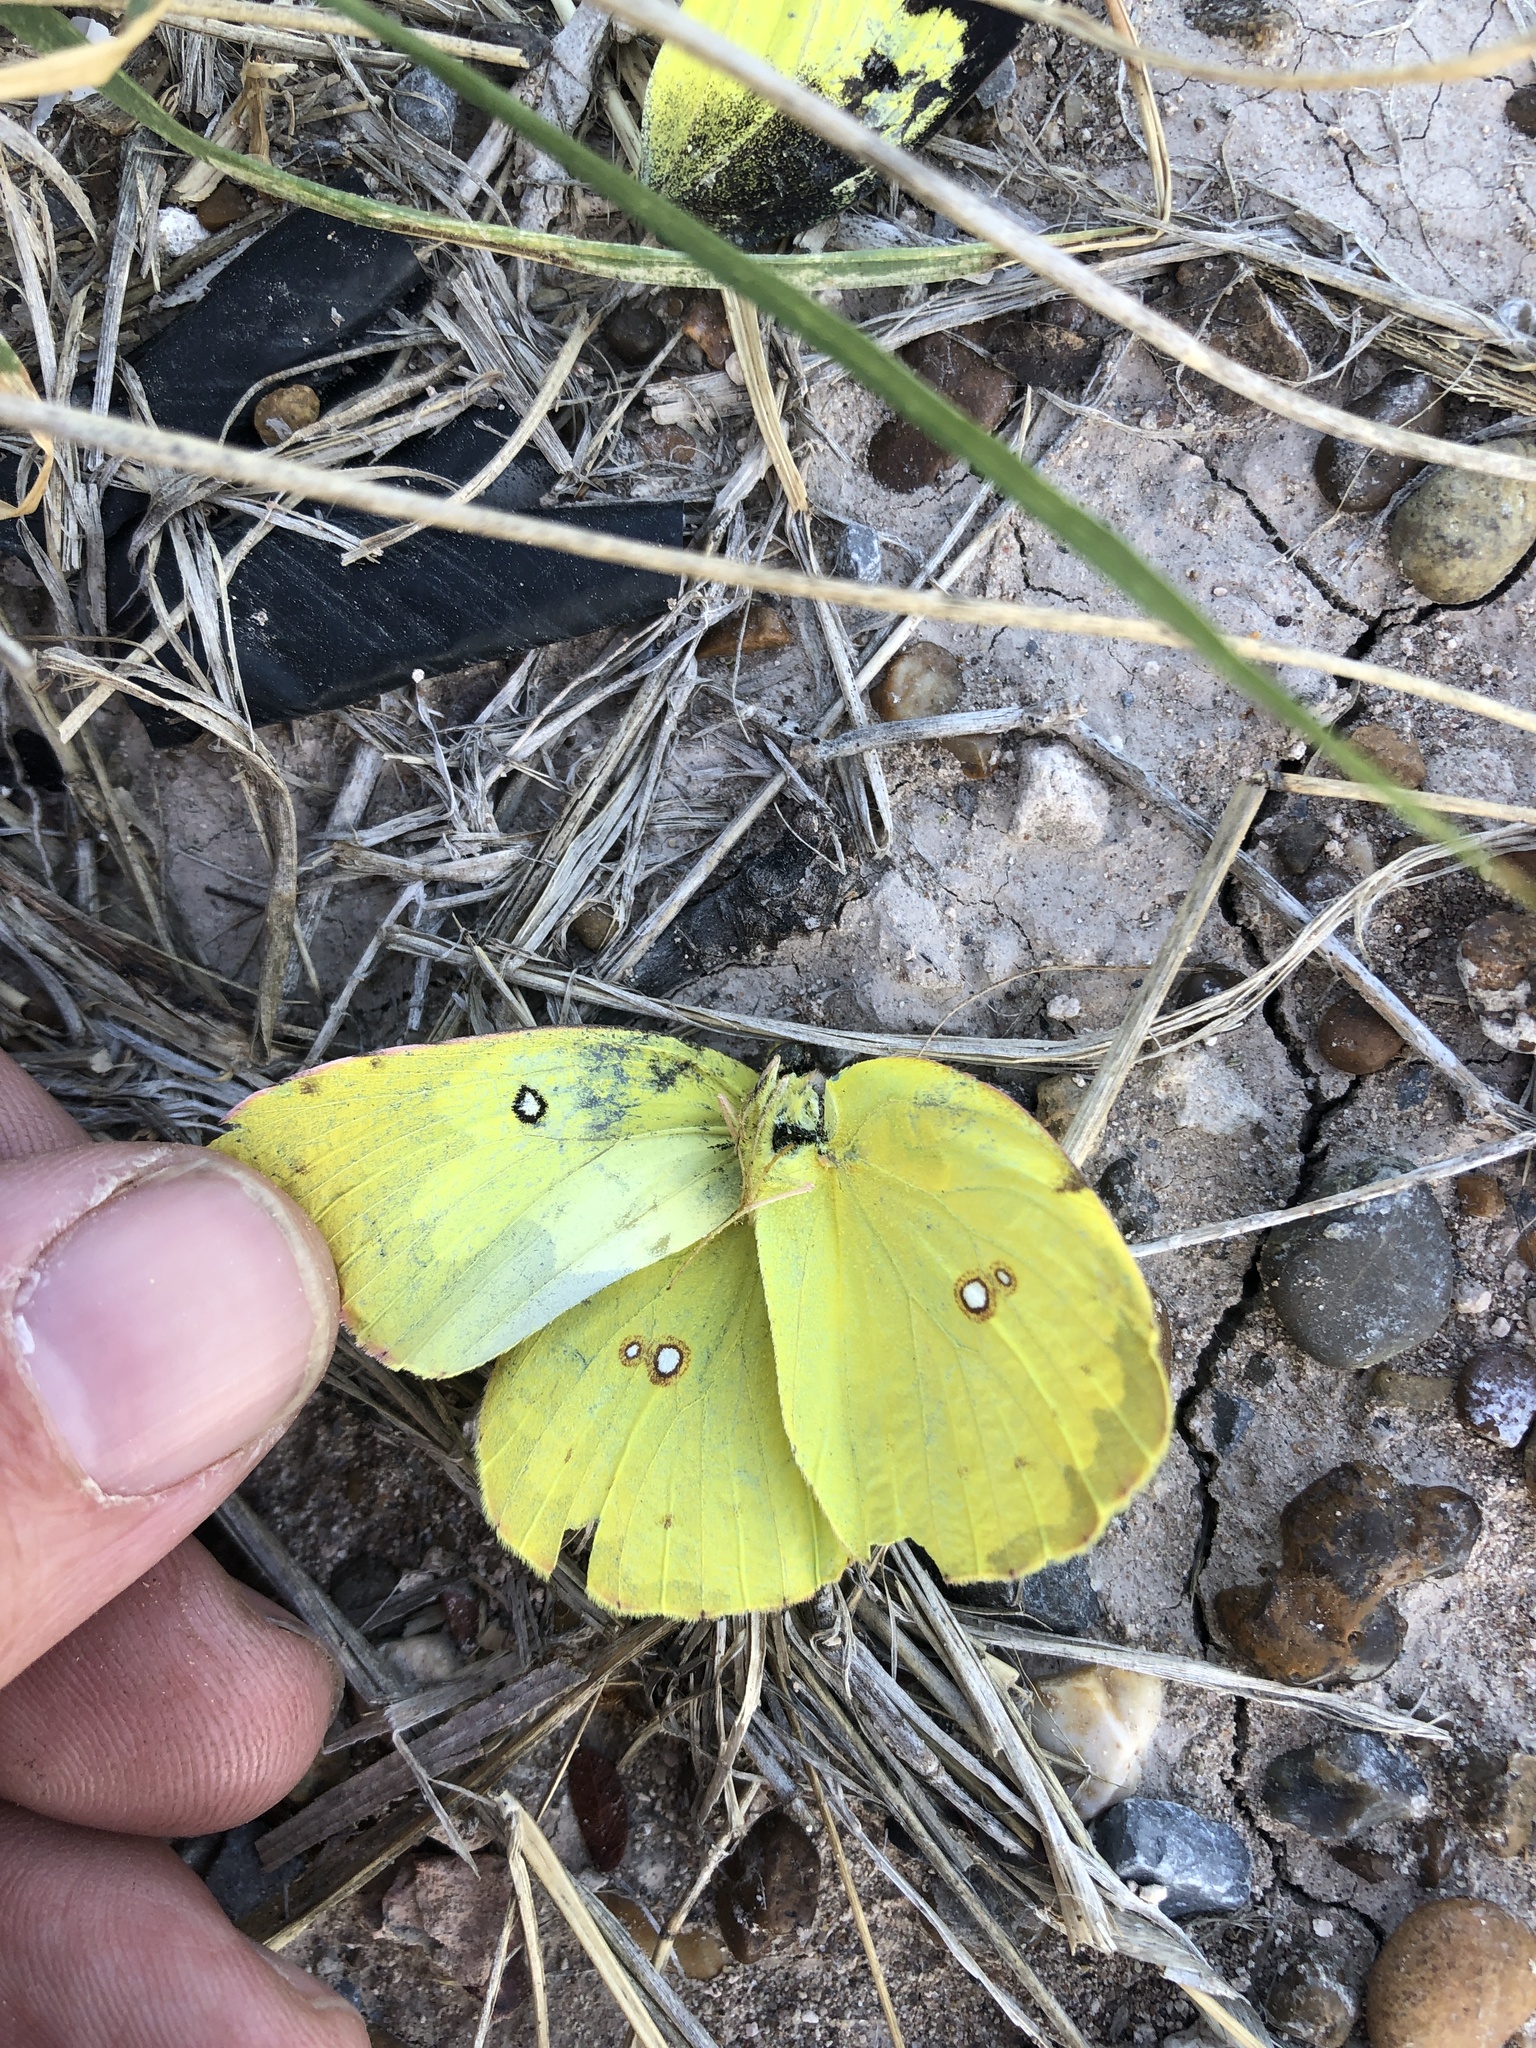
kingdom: Animalia
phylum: Arthropoda
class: Insecta
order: Lepidoptera
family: Pieridae
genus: Zerene
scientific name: Zerene cesonia
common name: Southern dogface
